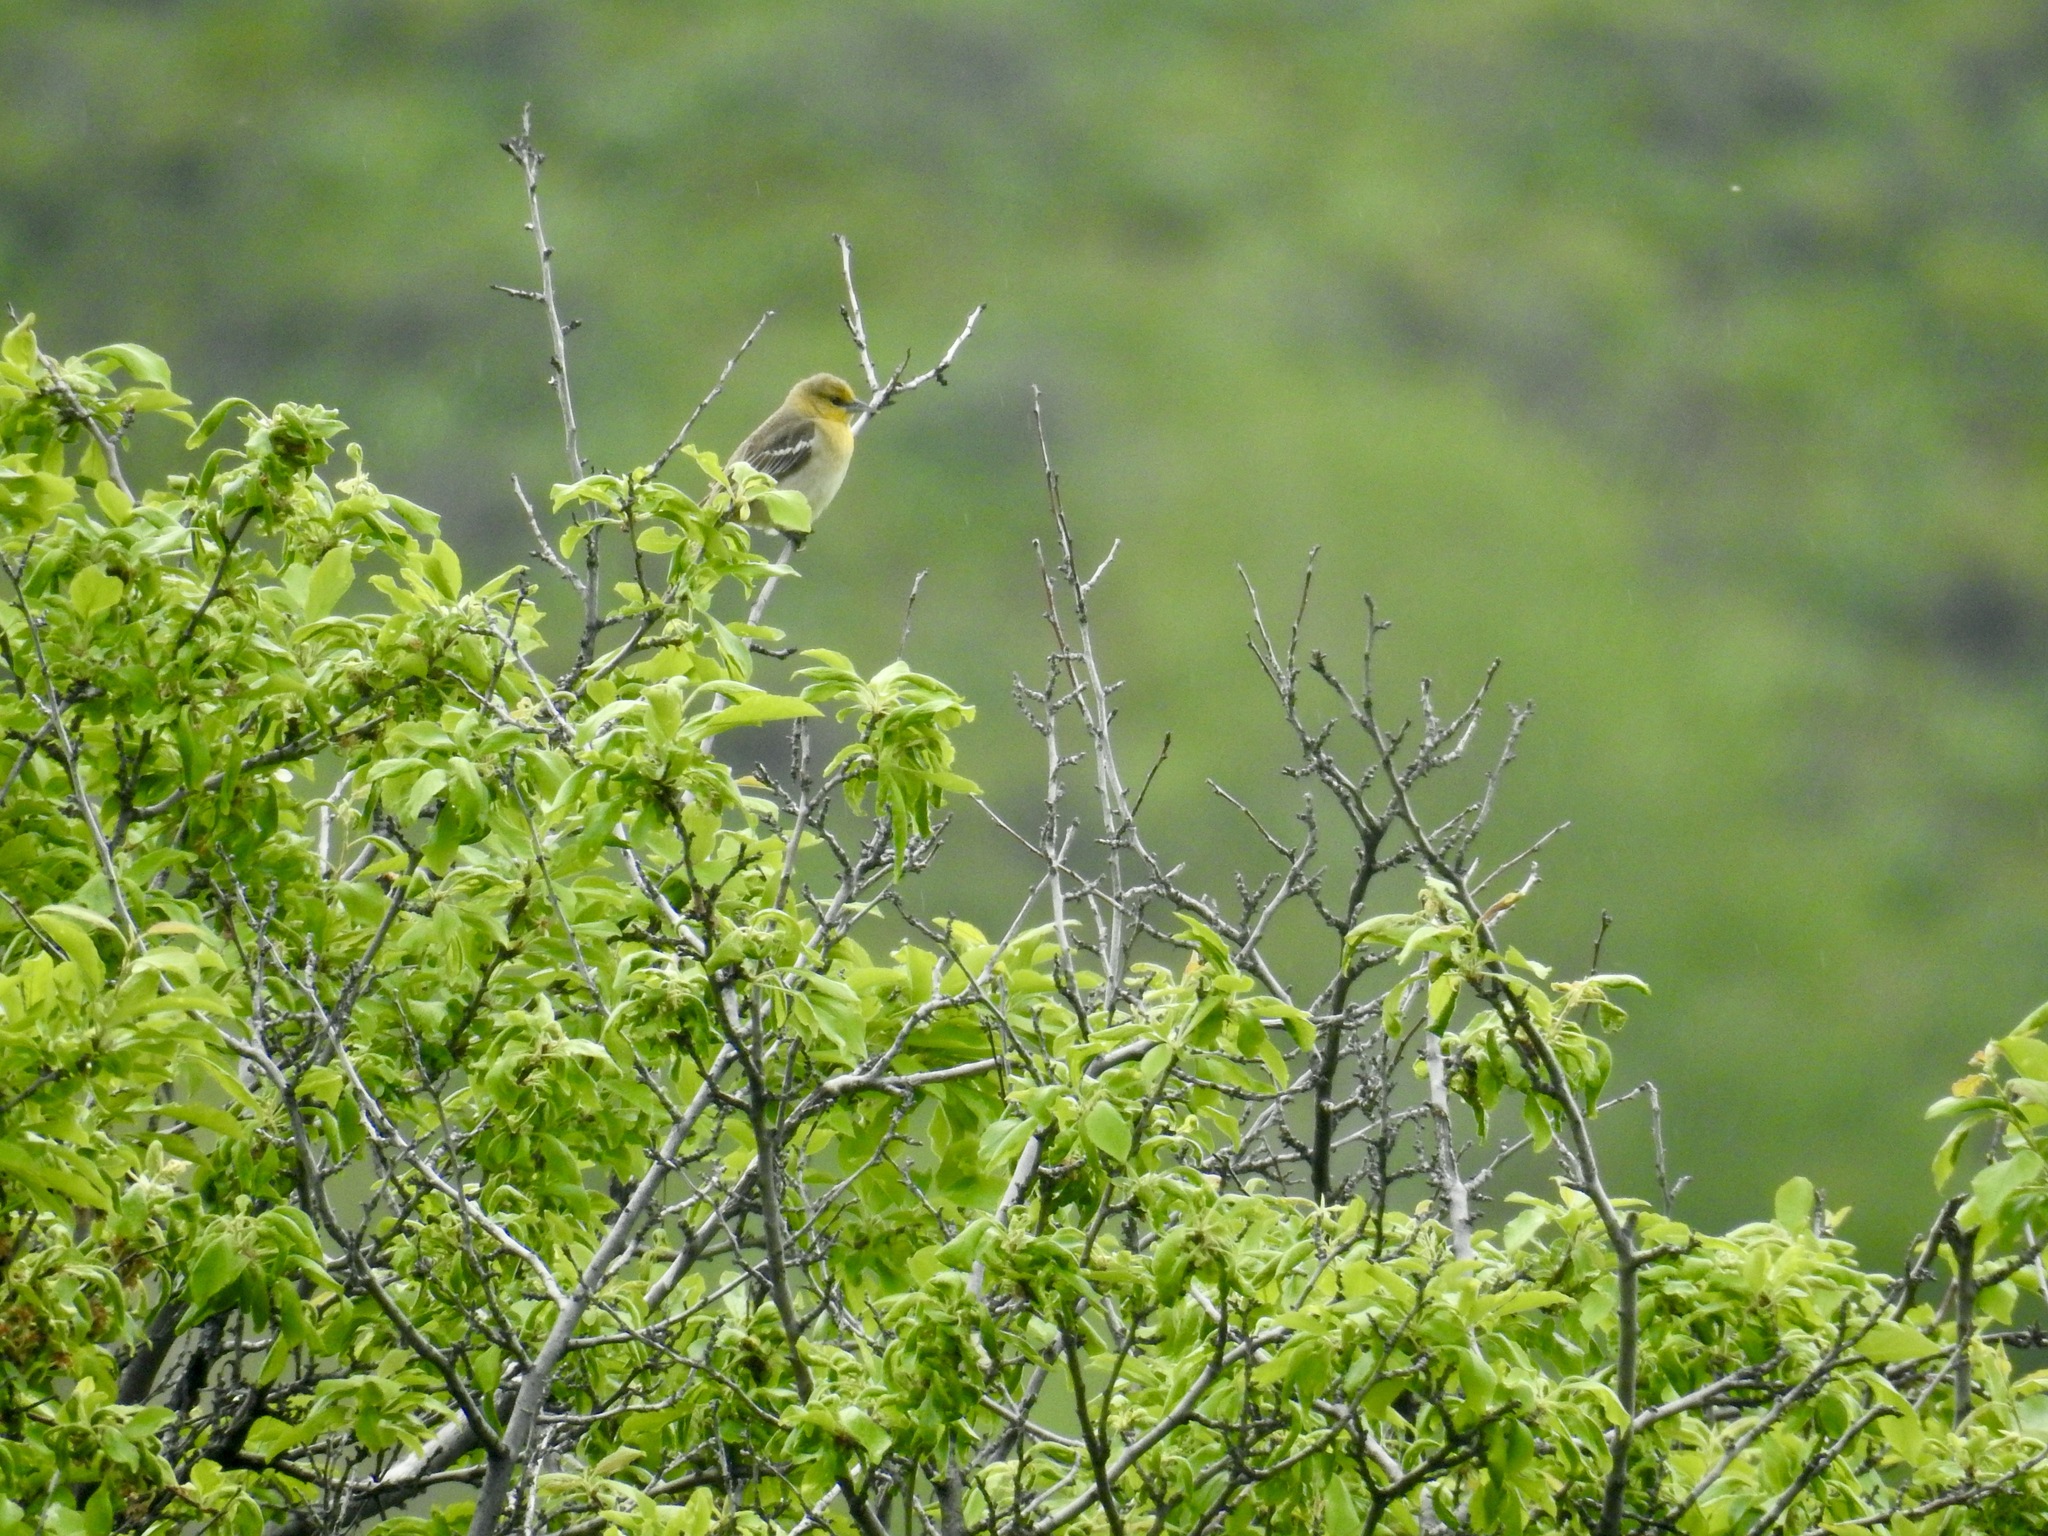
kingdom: Animalia
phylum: Chordata
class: Aves
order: Passeriformes
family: Icteridae
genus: Icterus
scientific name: Icterus bullockii
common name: Bullock's oriole
